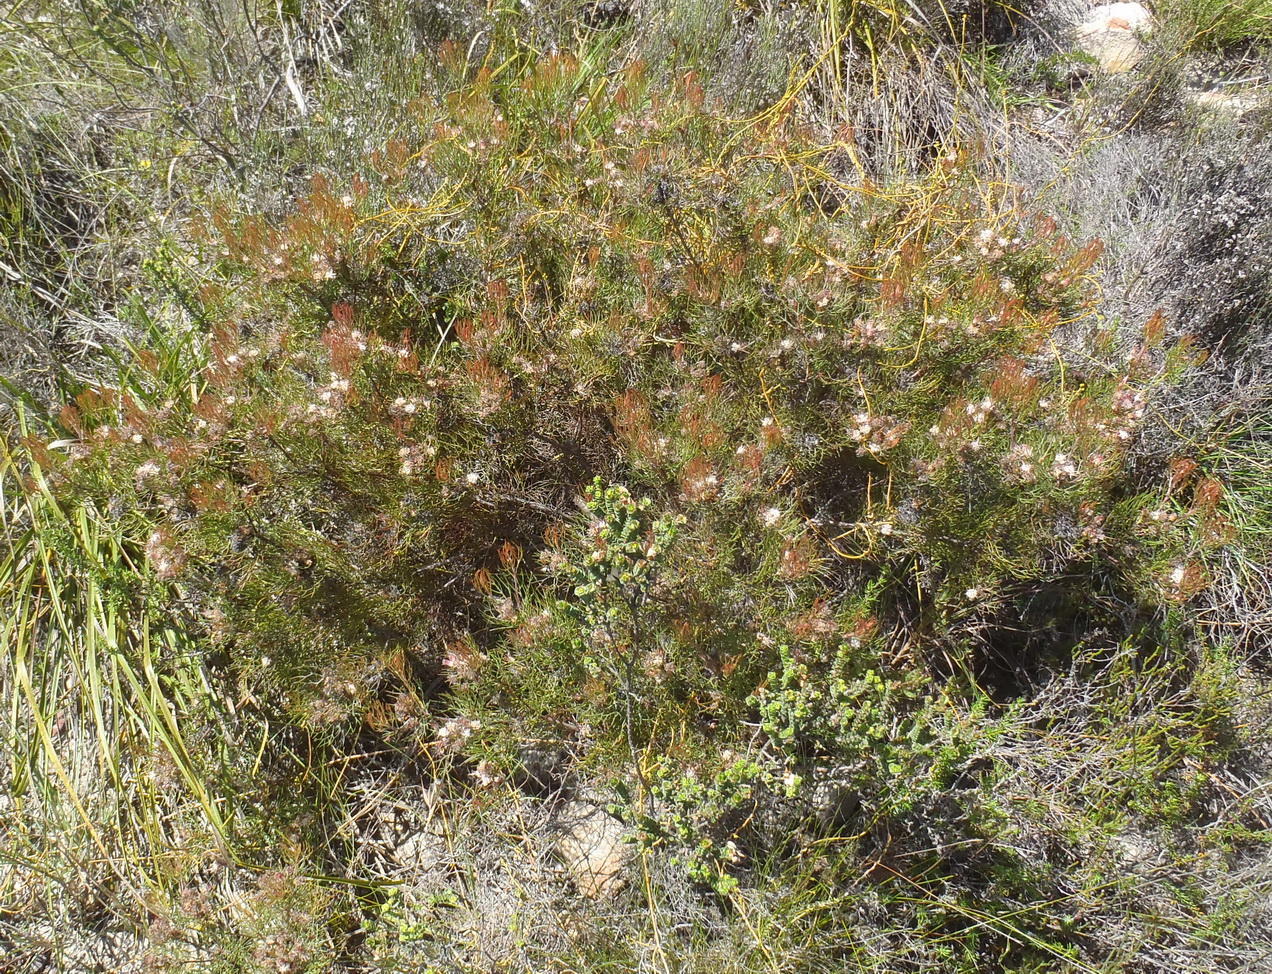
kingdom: Plantae
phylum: Tracheophyta
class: Magnoliopsida
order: Proteales
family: Proteaceae
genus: Serruria
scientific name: Serruria fasciflora
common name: Common pin spiderhead
